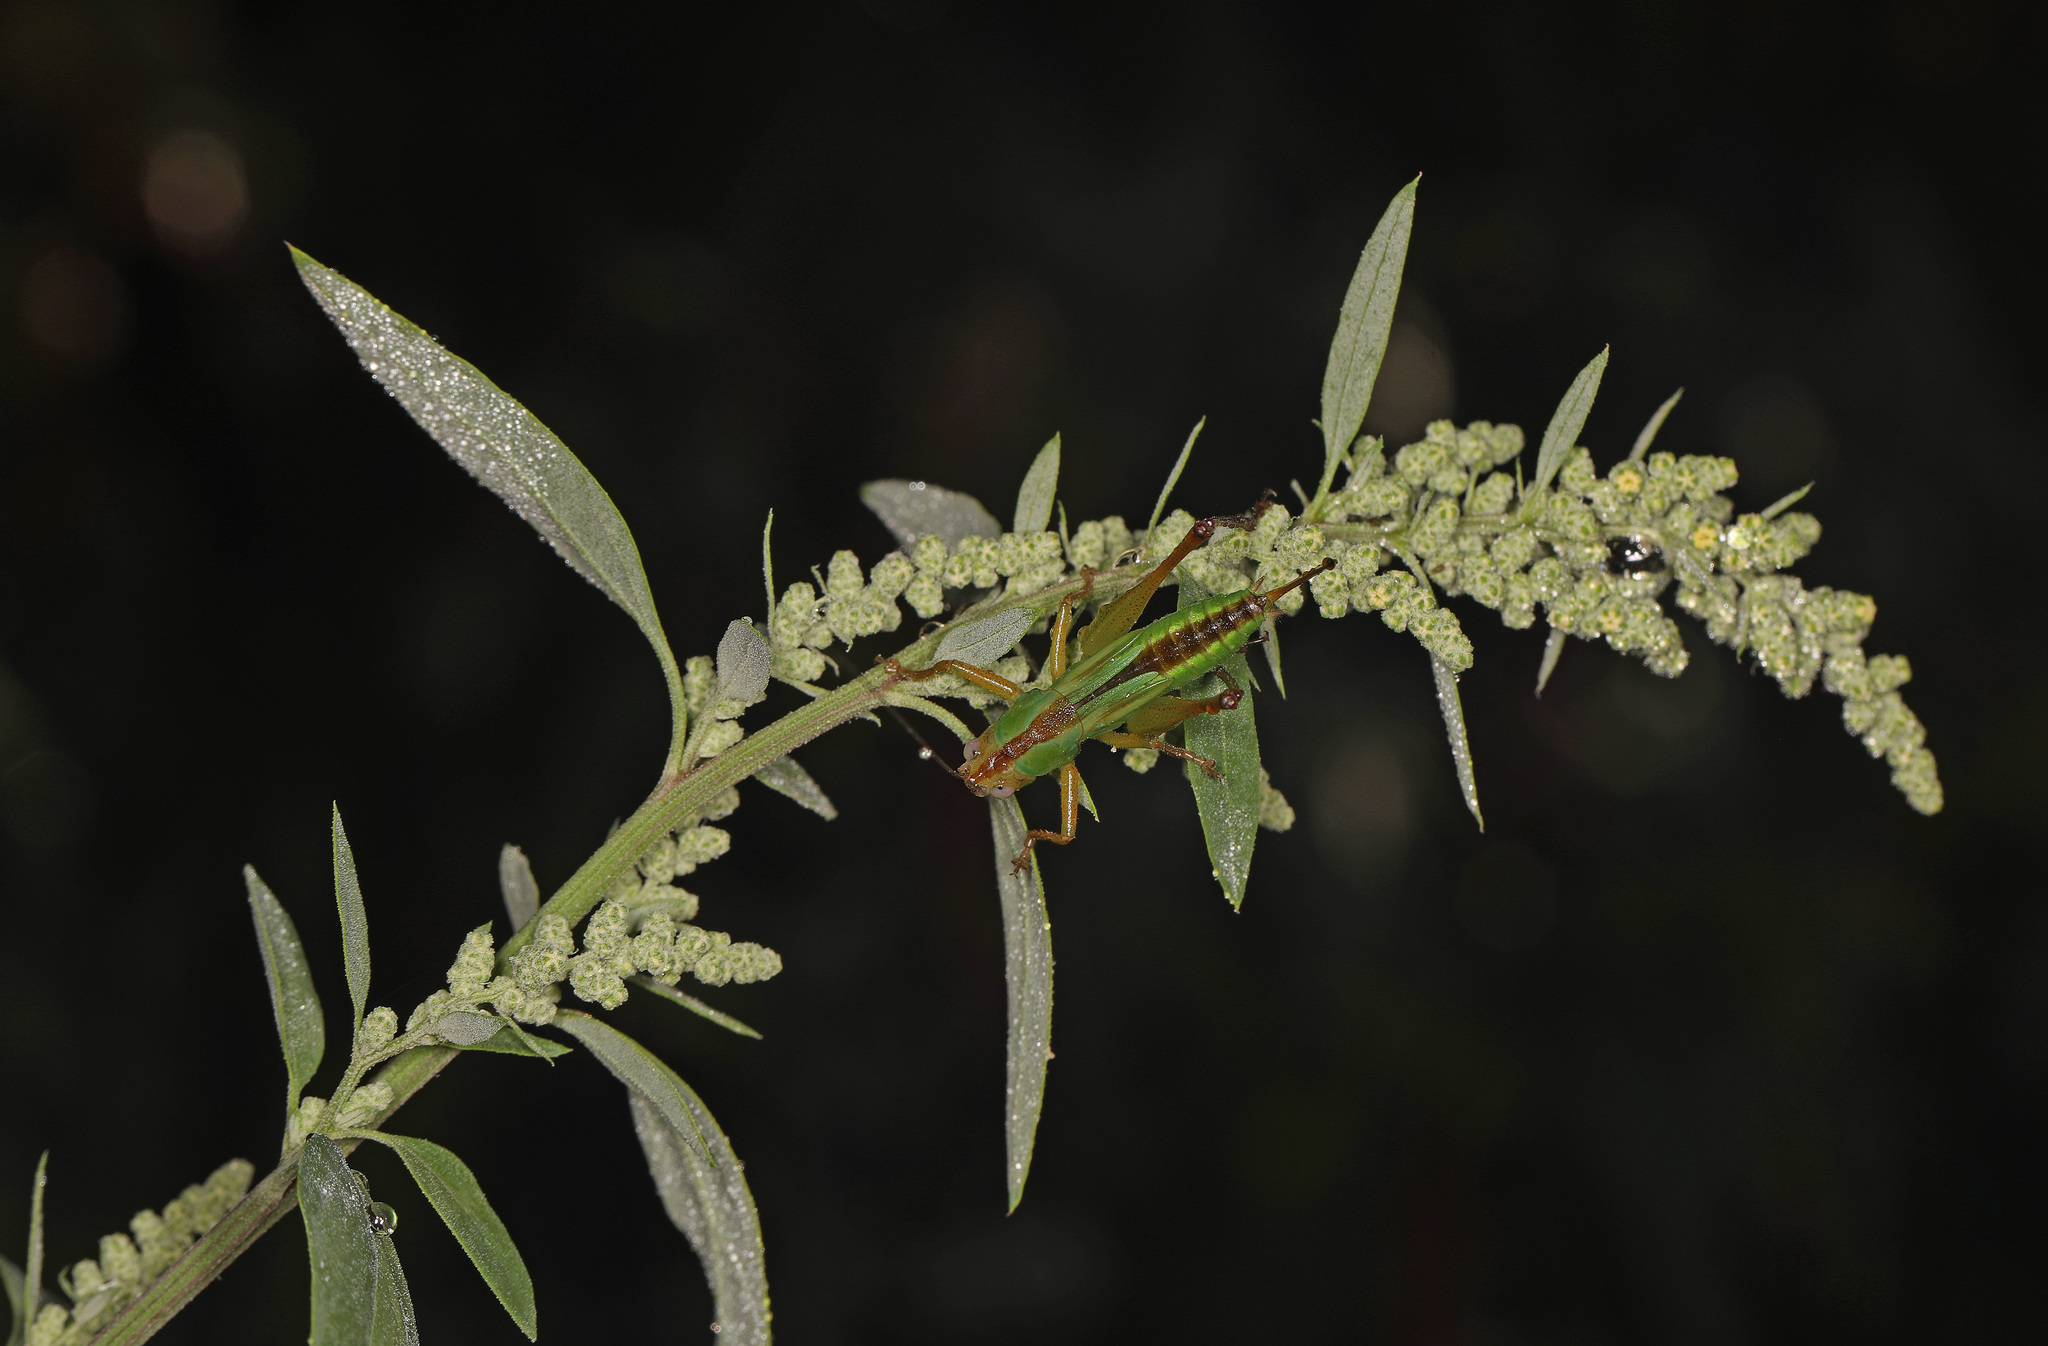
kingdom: Animalia
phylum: Arthropoda
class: Insecta
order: Orthoptera
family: Tettigoniidae
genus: Orchelimum
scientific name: Orchelimum pulchellum
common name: Handsome meadow katydid
